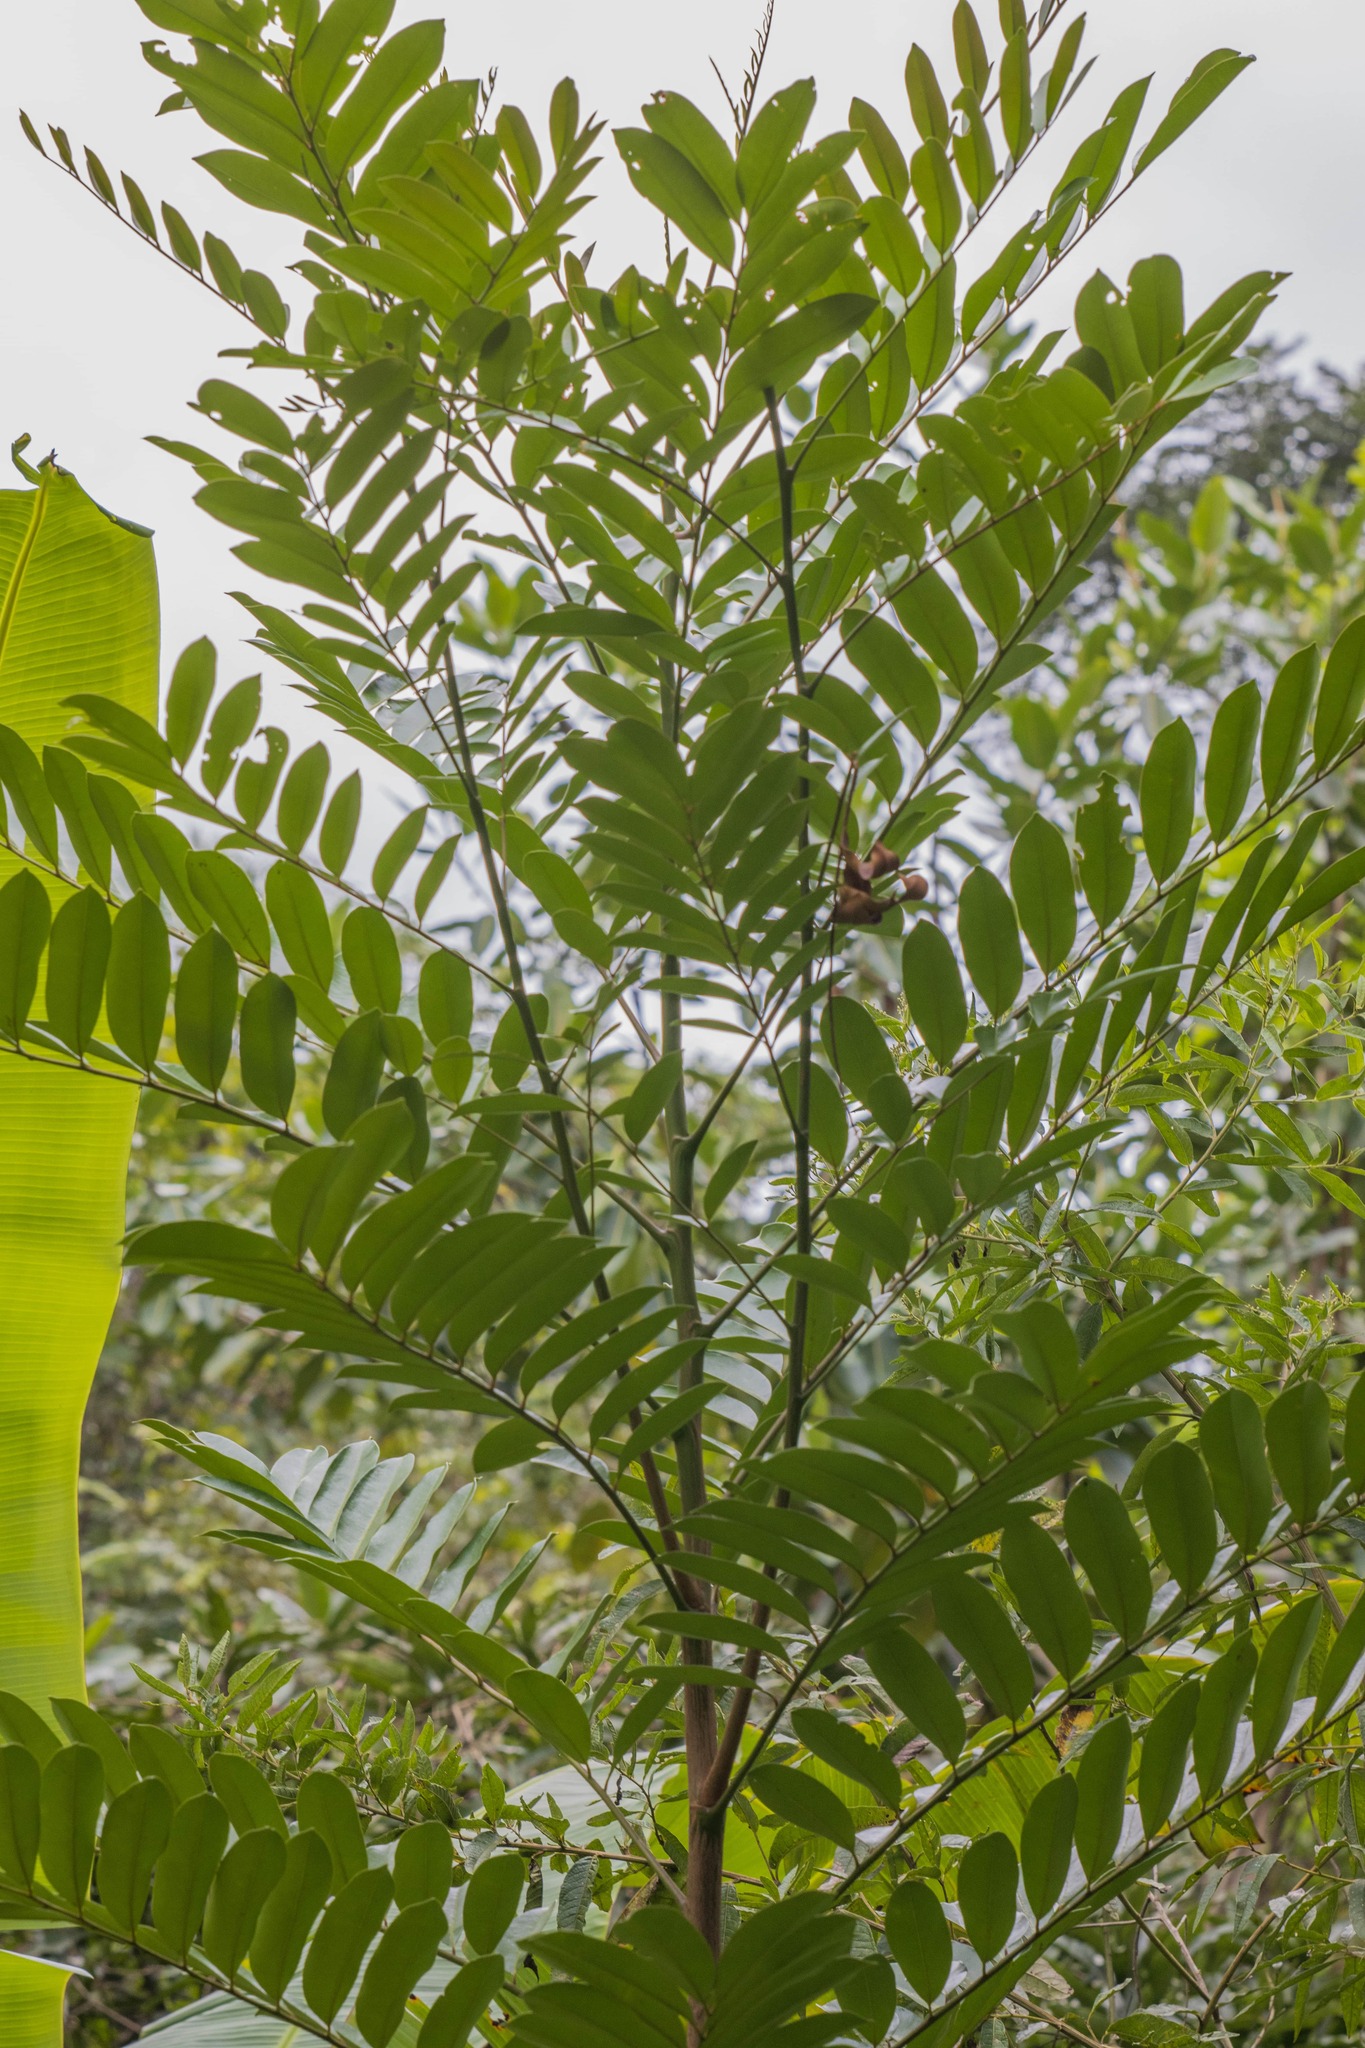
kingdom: Plantae
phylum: Tracheophyta
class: Magnoliopsida
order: Sapindales
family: Simaroubaceae
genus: Simarouba
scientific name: Simarouba amara
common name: Bitterwood
